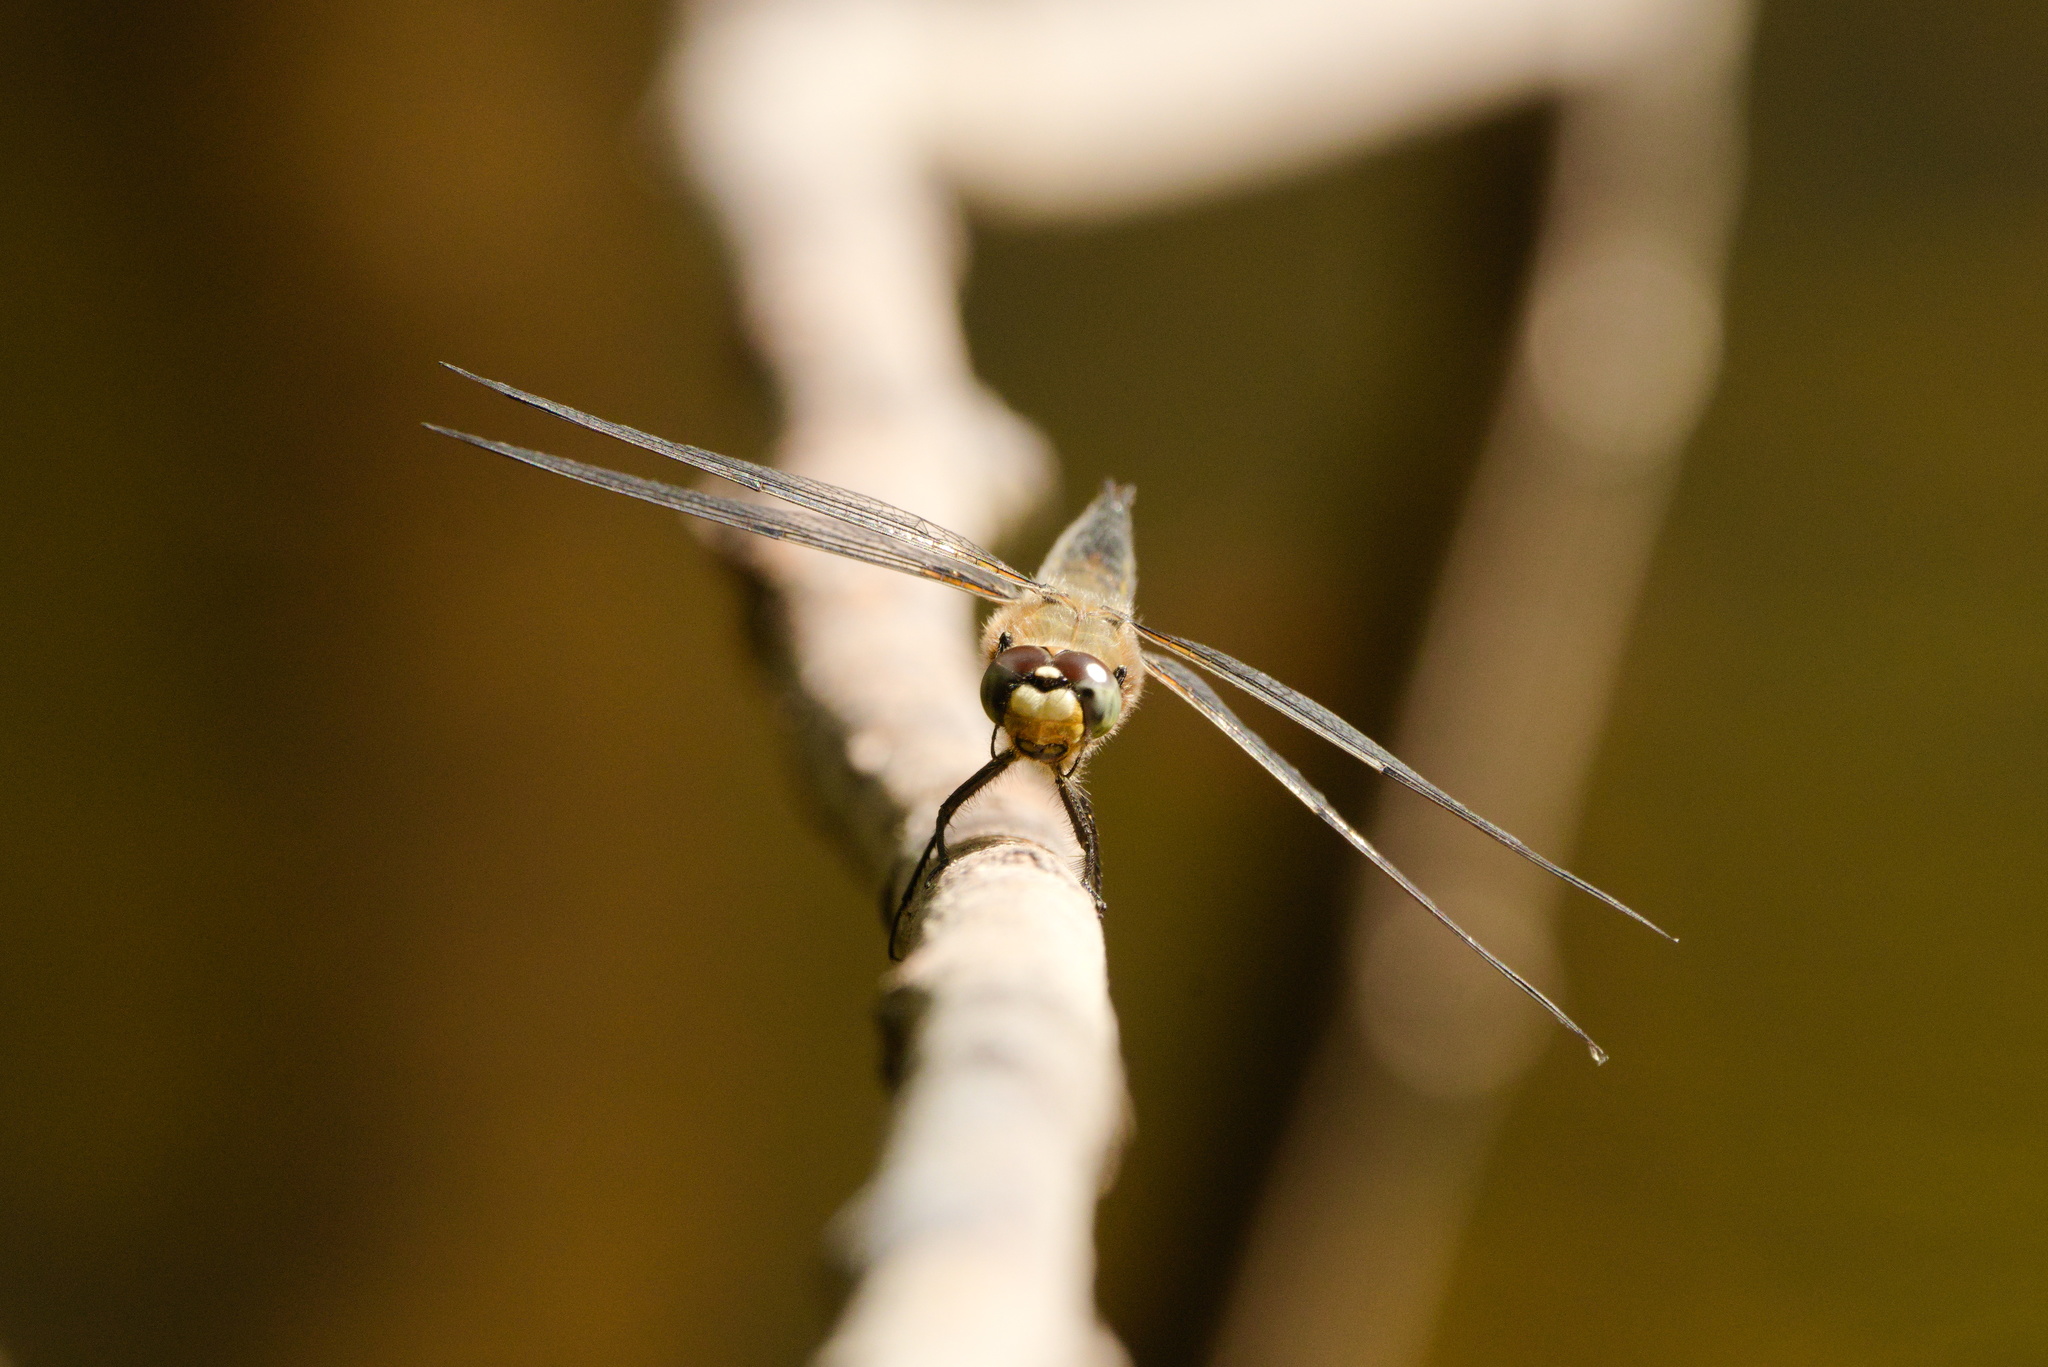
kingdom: Animalia
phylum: Arthropoda
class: Insecta
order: Odonata
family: Libellulidae
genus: Libellula
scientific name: Libellula quadrimaculata
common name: Four-spotted chaser
